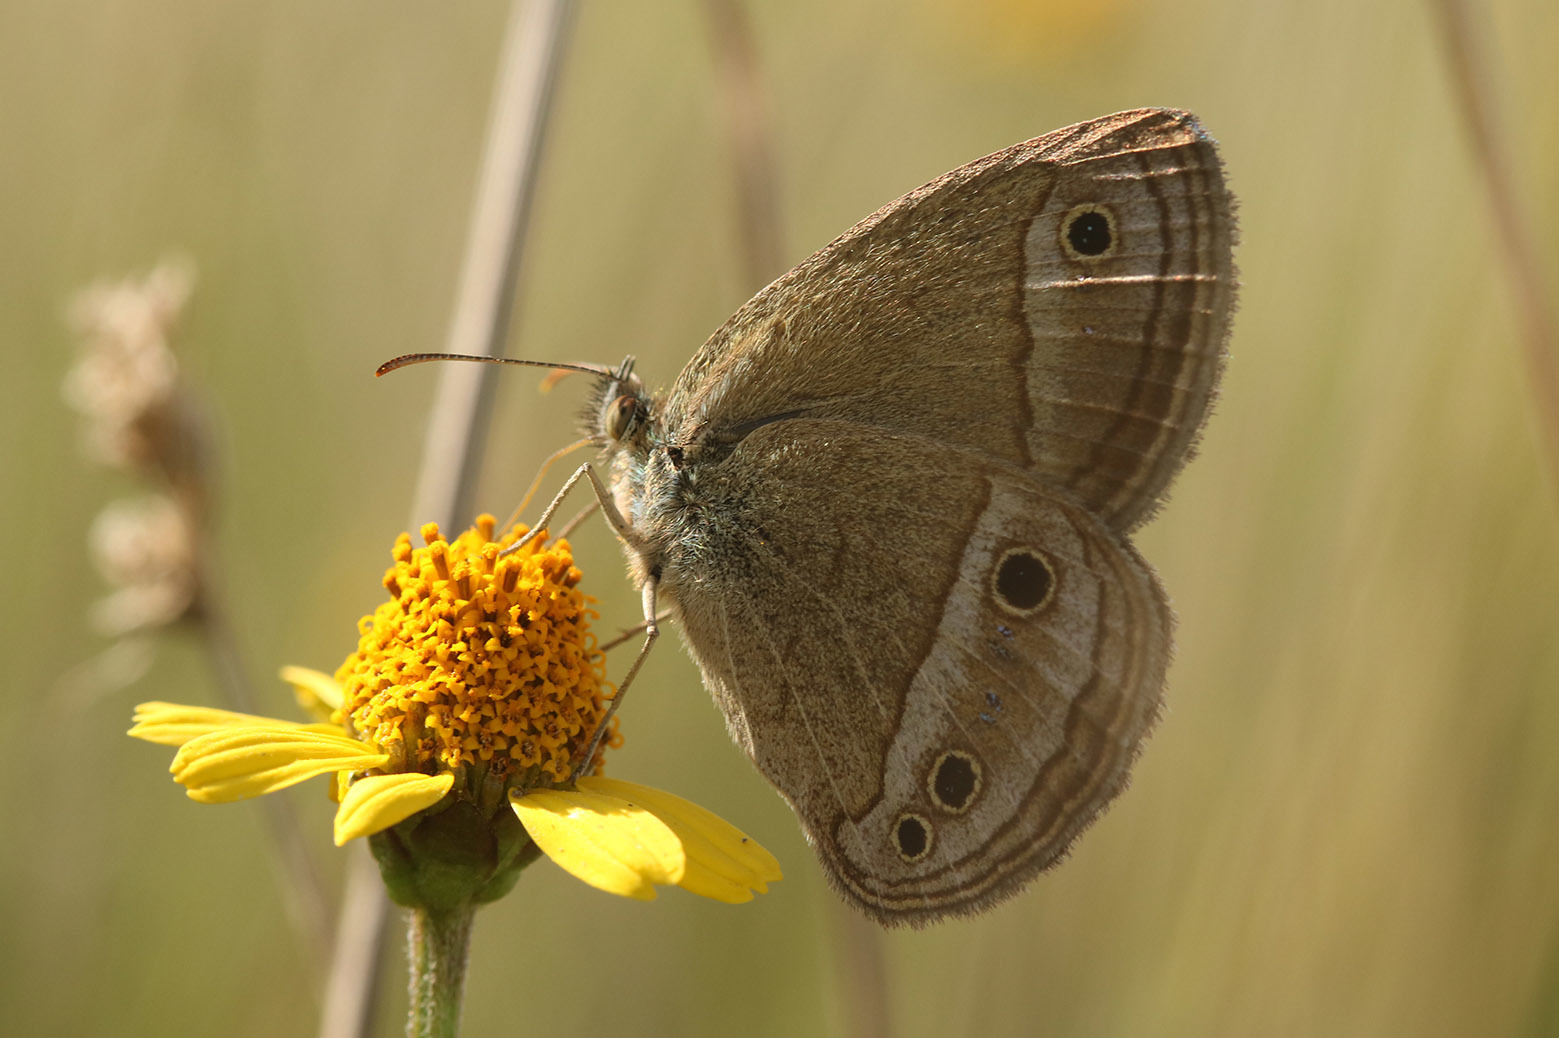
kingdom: Animalia
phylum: Arthropoda
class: Insecta
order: Lepidoptera
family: Nymphalidae
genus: Stegosatyrus
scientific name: Stegosatyrus periphas
